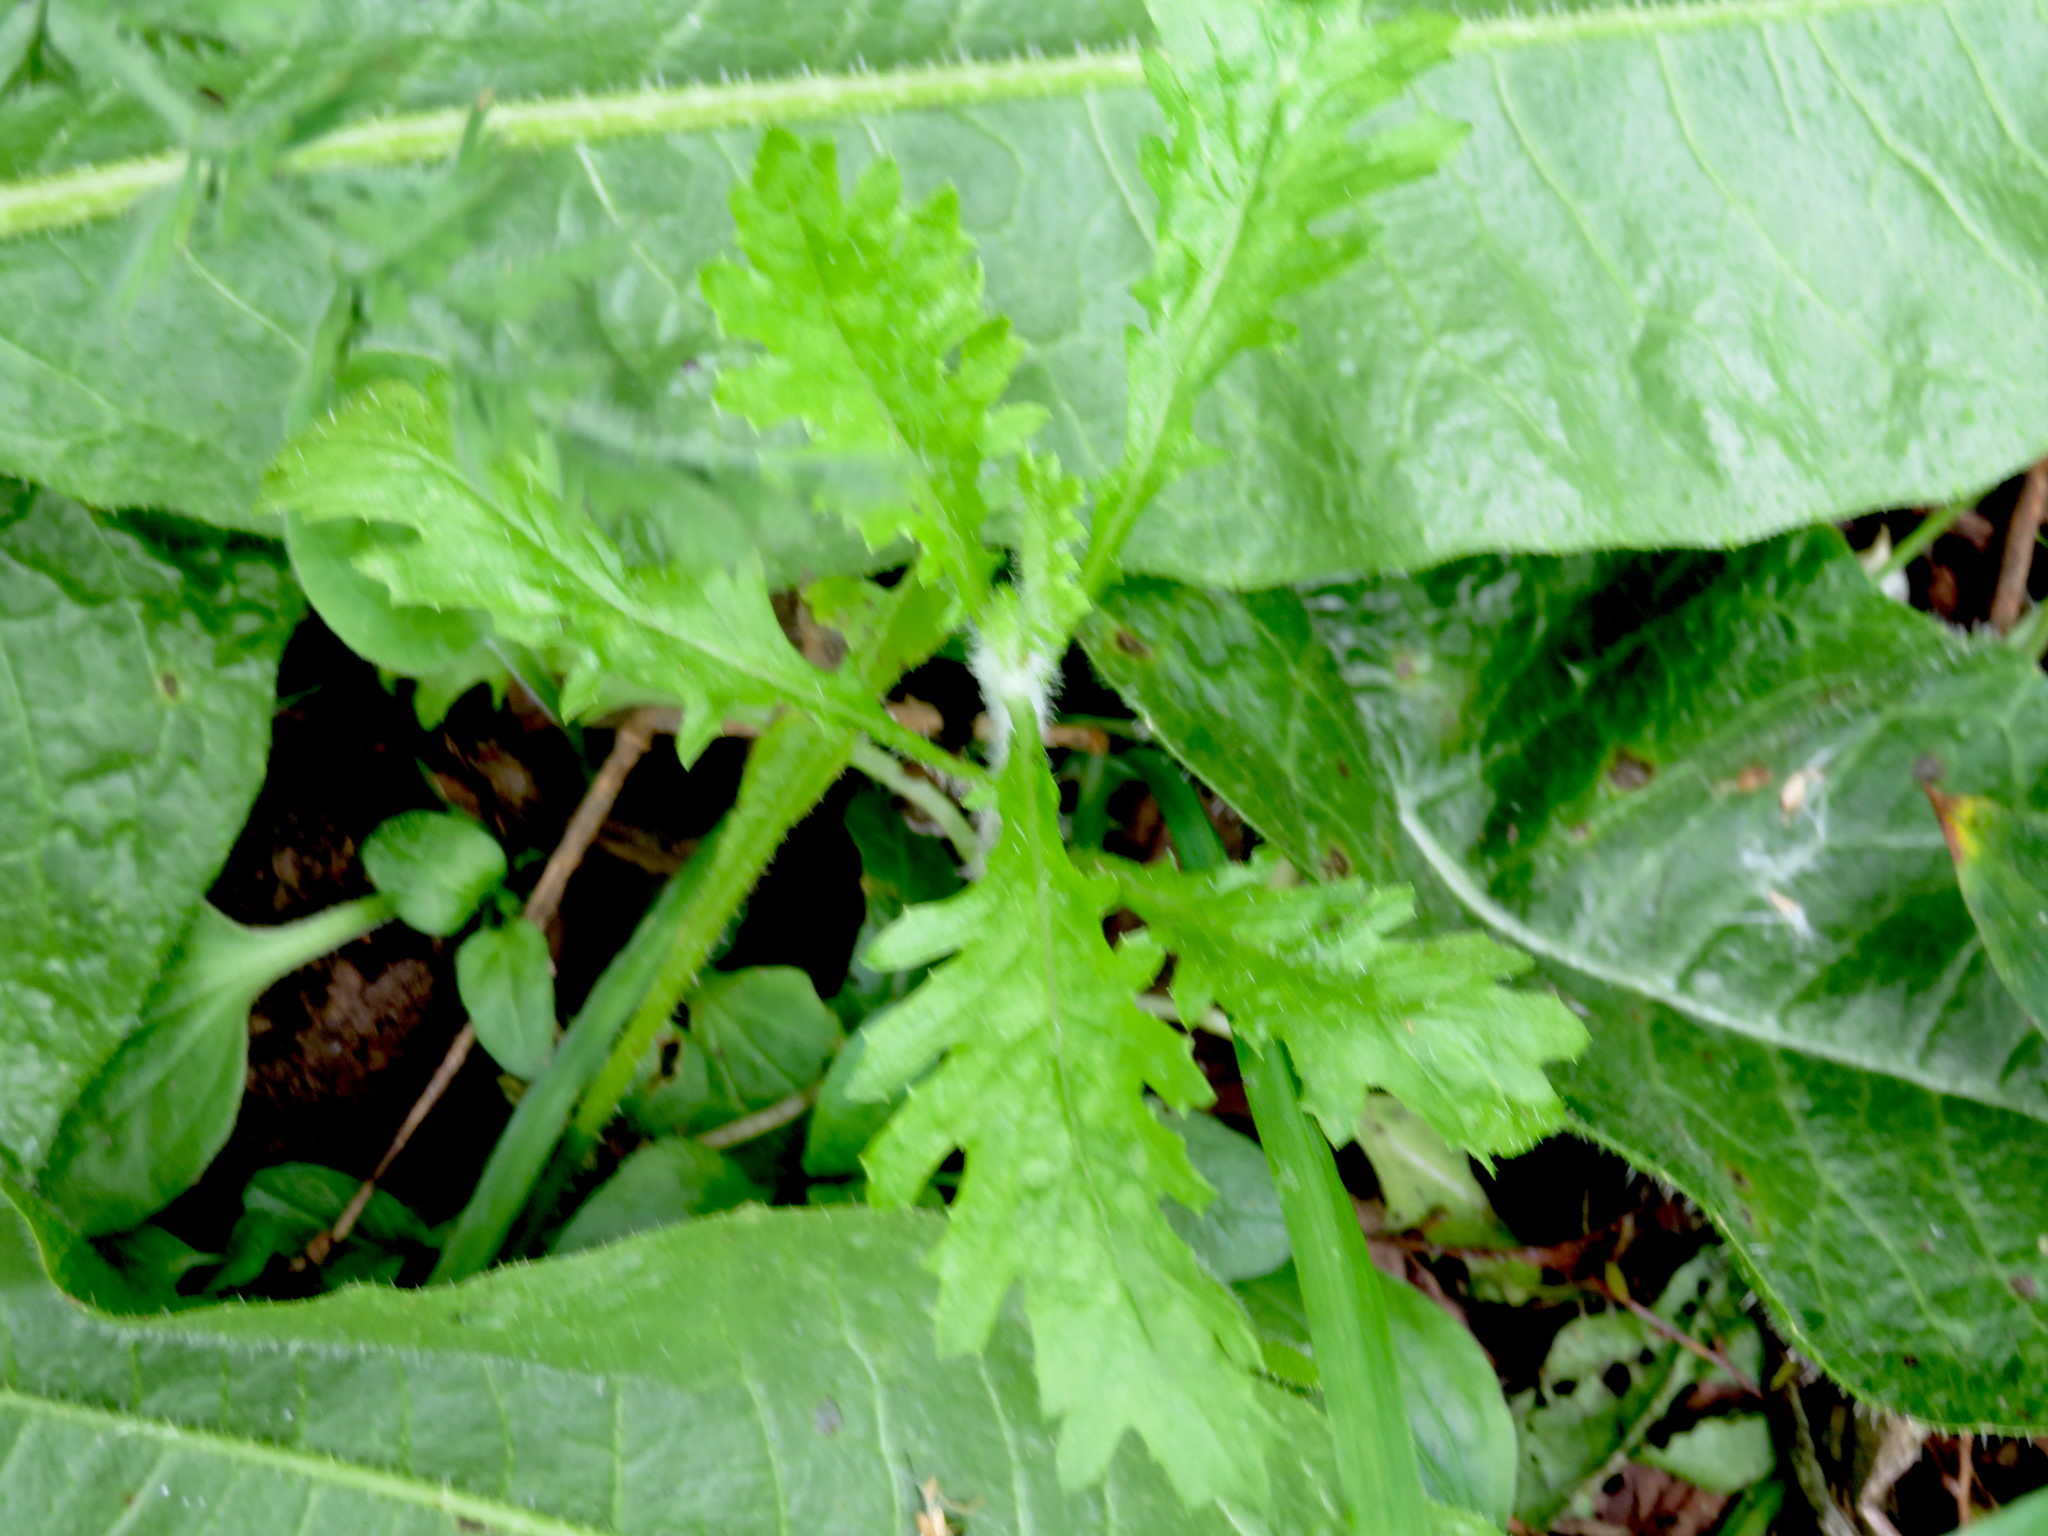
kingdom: Plantae
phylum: Tracheophyta
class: Magnoliopsida
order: Asterales
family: Asteraceae
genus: Senecio
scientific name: Senecio esleri
